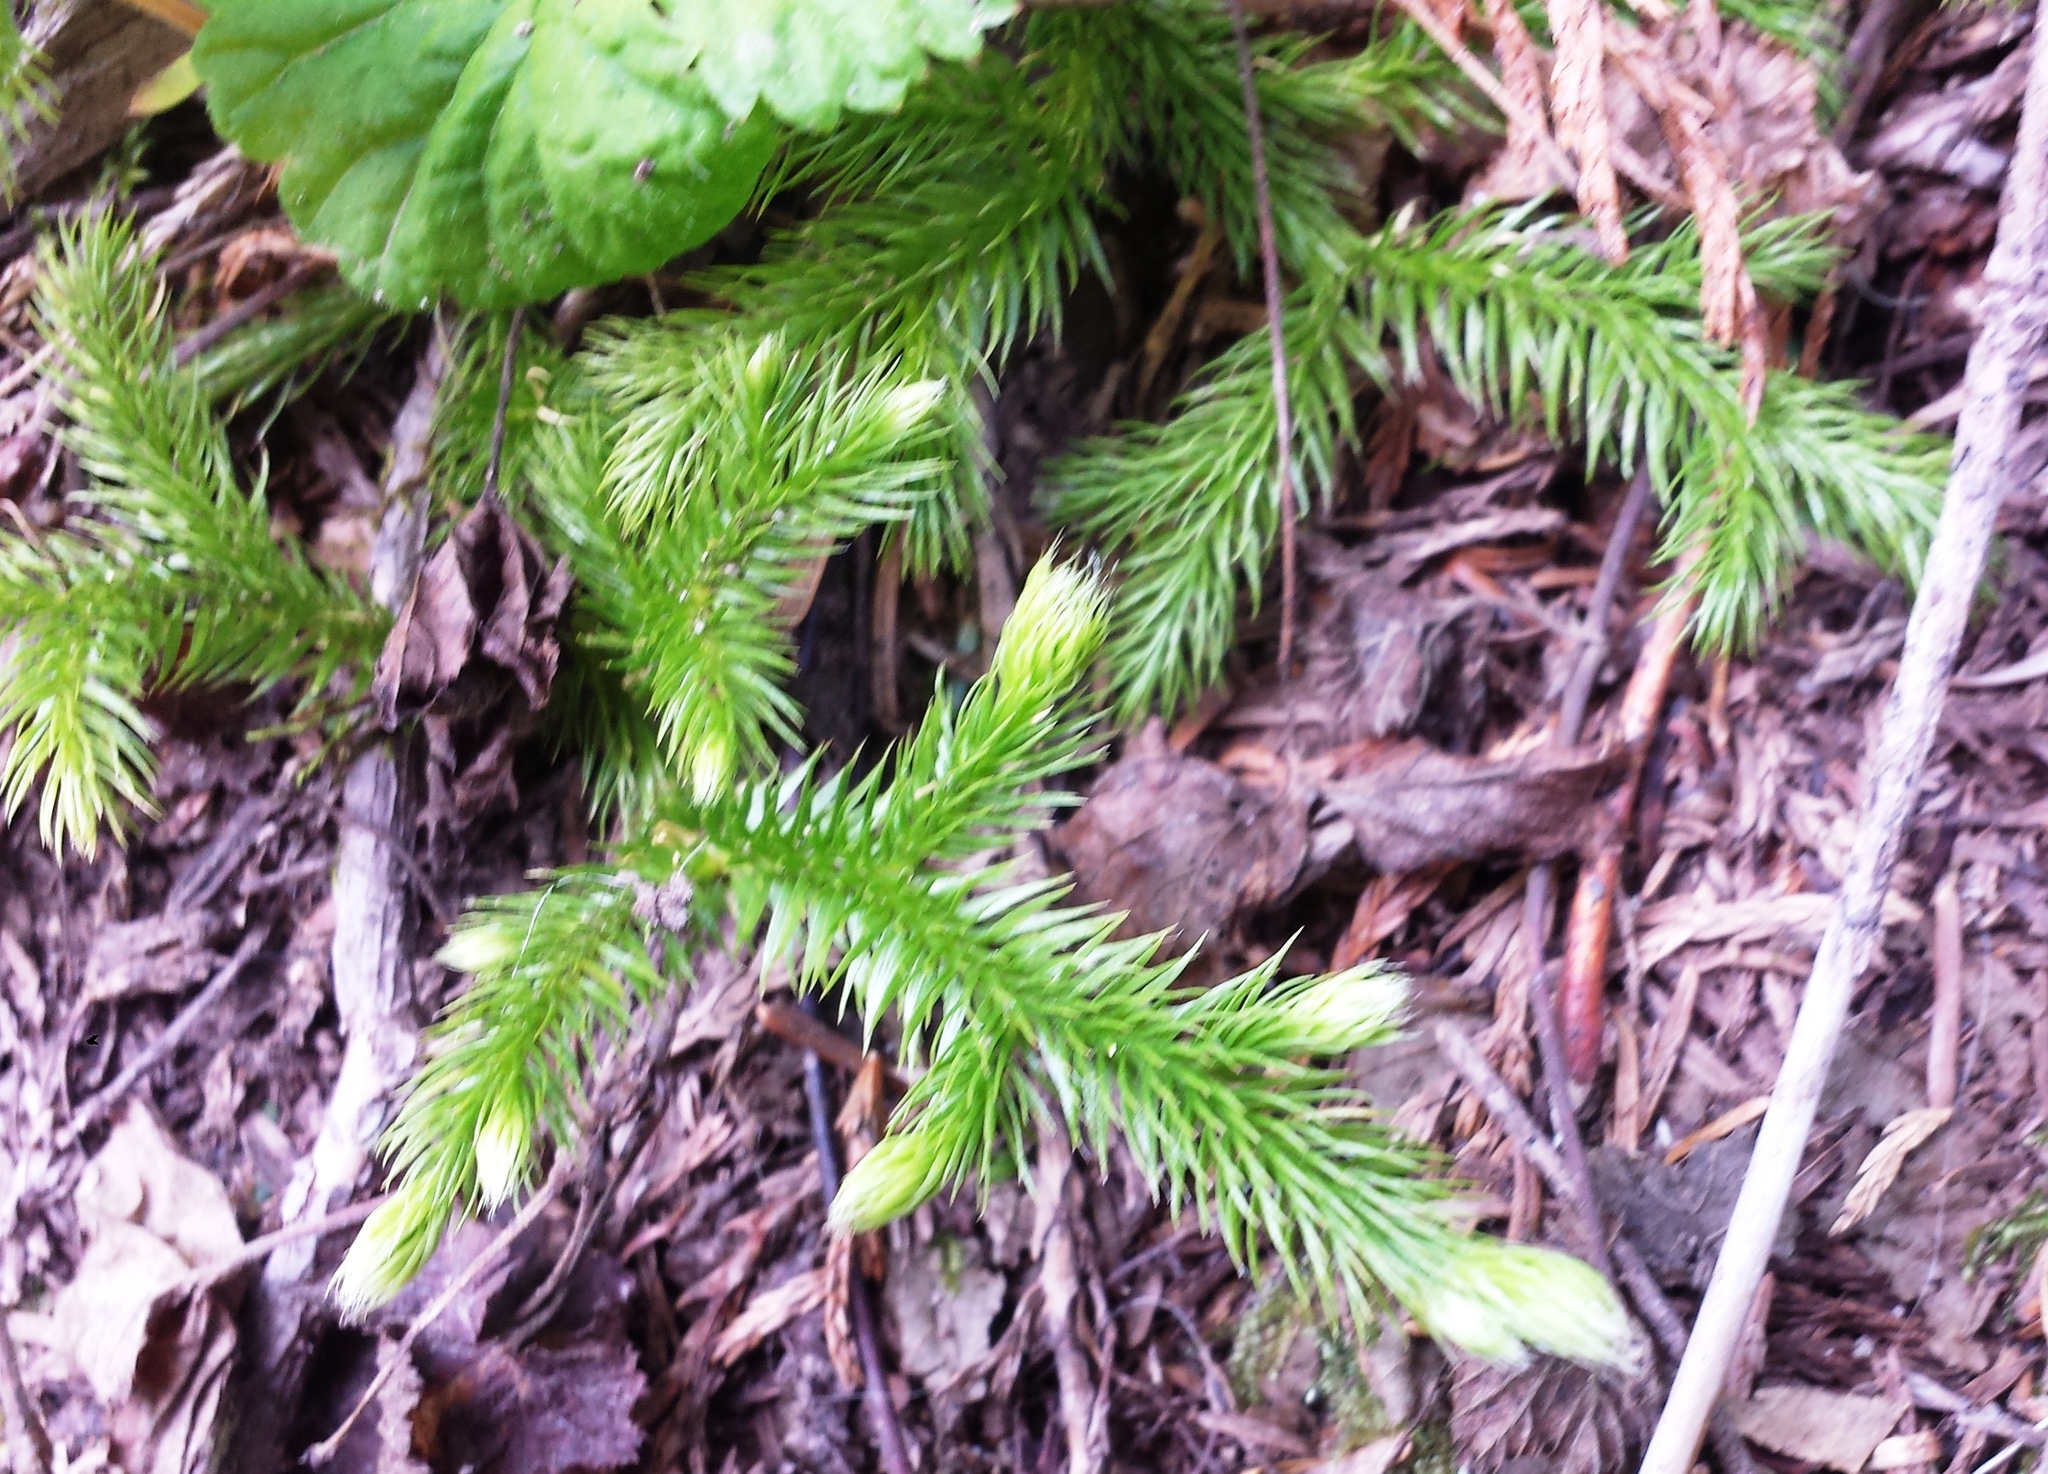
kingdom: Plantae
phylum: Tracheophyta
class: Lycopodiopsida
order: Lycopodiales
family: Lycopodiaceae
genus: Lycopodium
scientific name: Lycopodium clavatum
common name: Stag's-horn clubmoss
